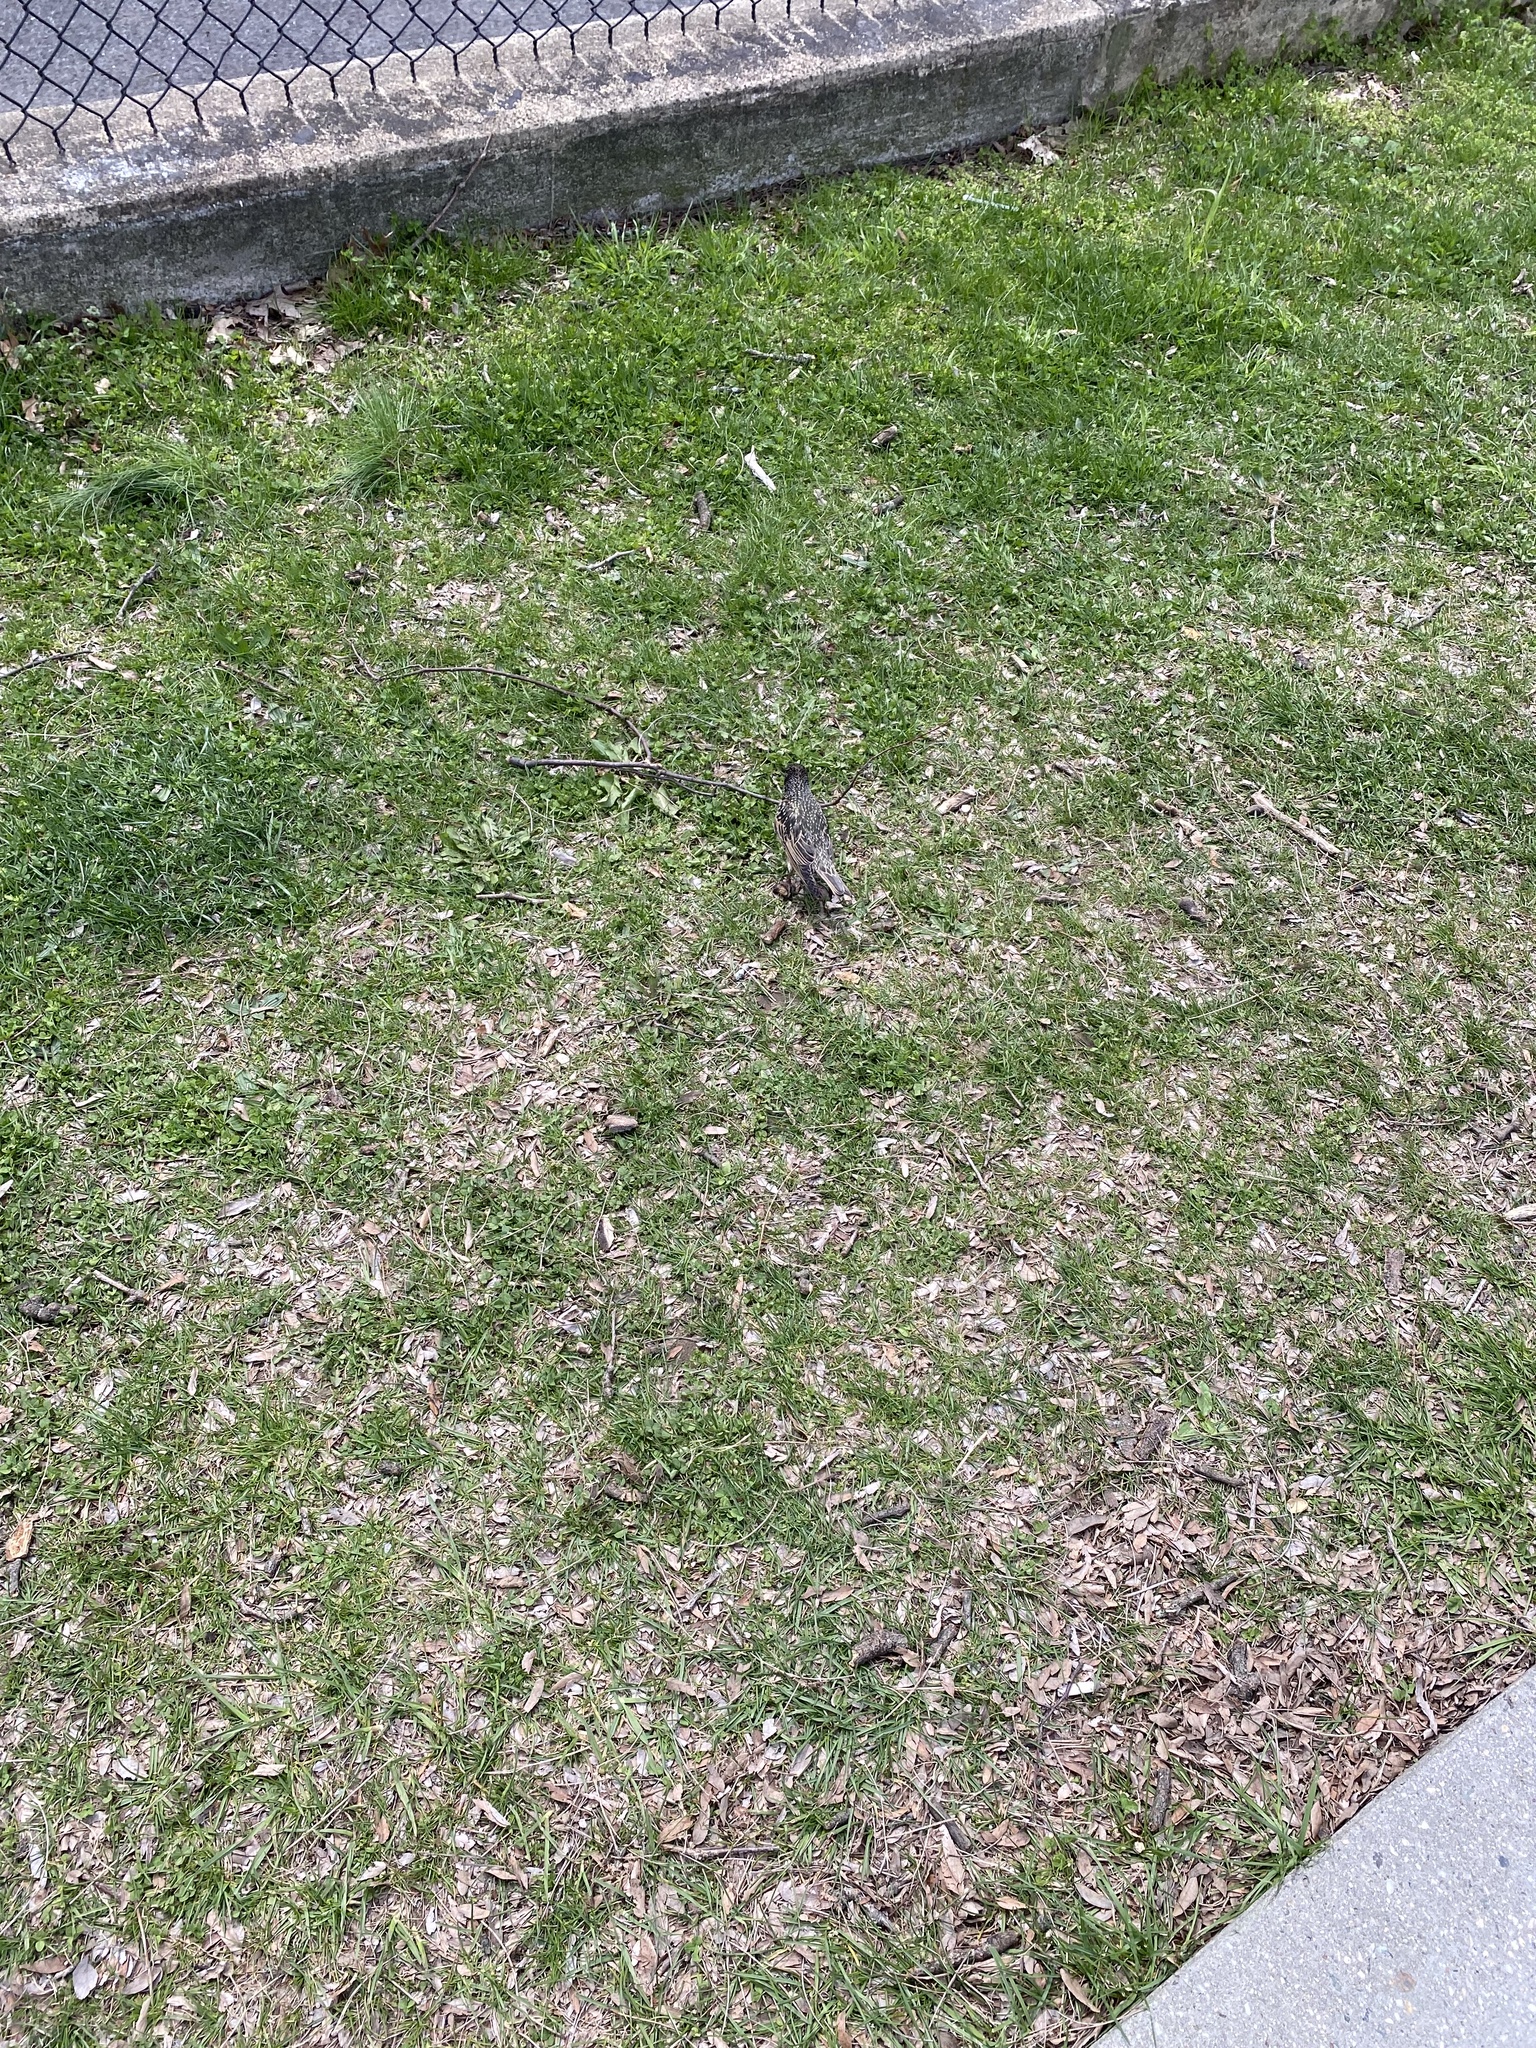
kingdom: Animalia
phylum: Chordata
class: Aves
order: Passeriformes
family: Sturnidae
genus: Sturnus
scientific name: Sturnus vulgaris
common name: Common starling
